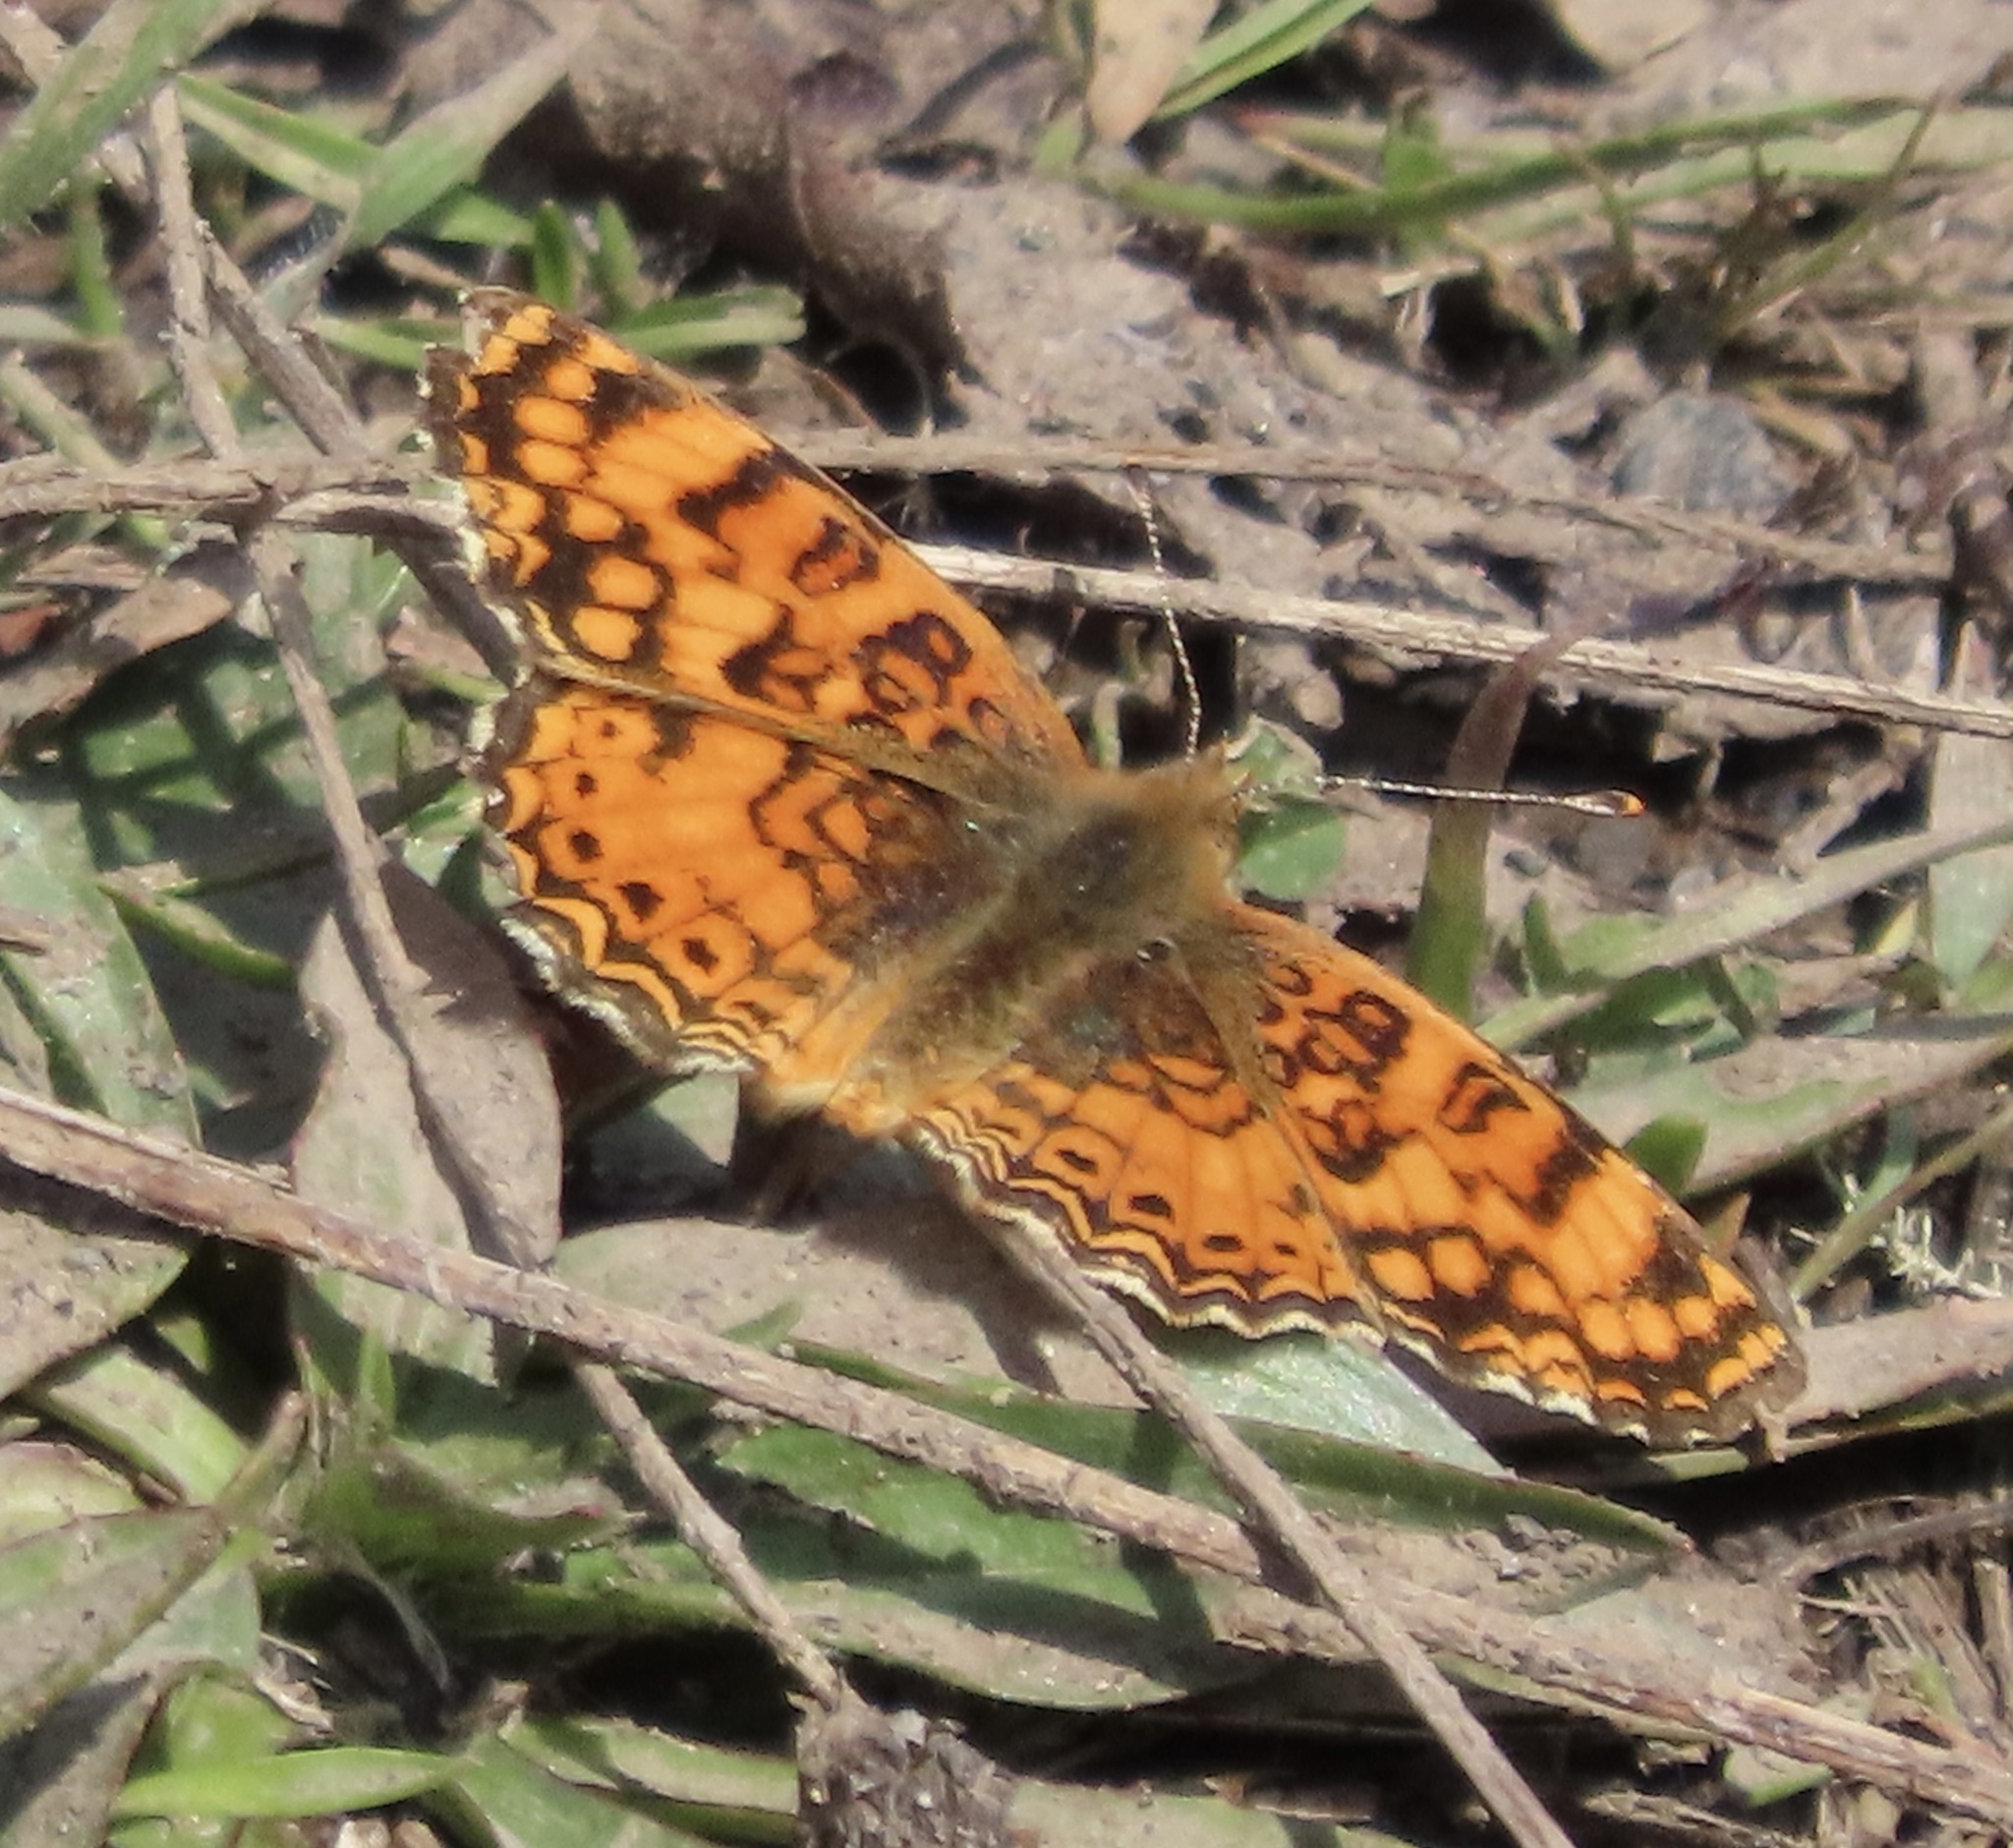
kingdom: Animalia
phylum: Arthropoda
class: Insecta
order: Lepidoptera
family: Nymphalidae
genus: Eresia
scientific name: Eresia aveyrona
